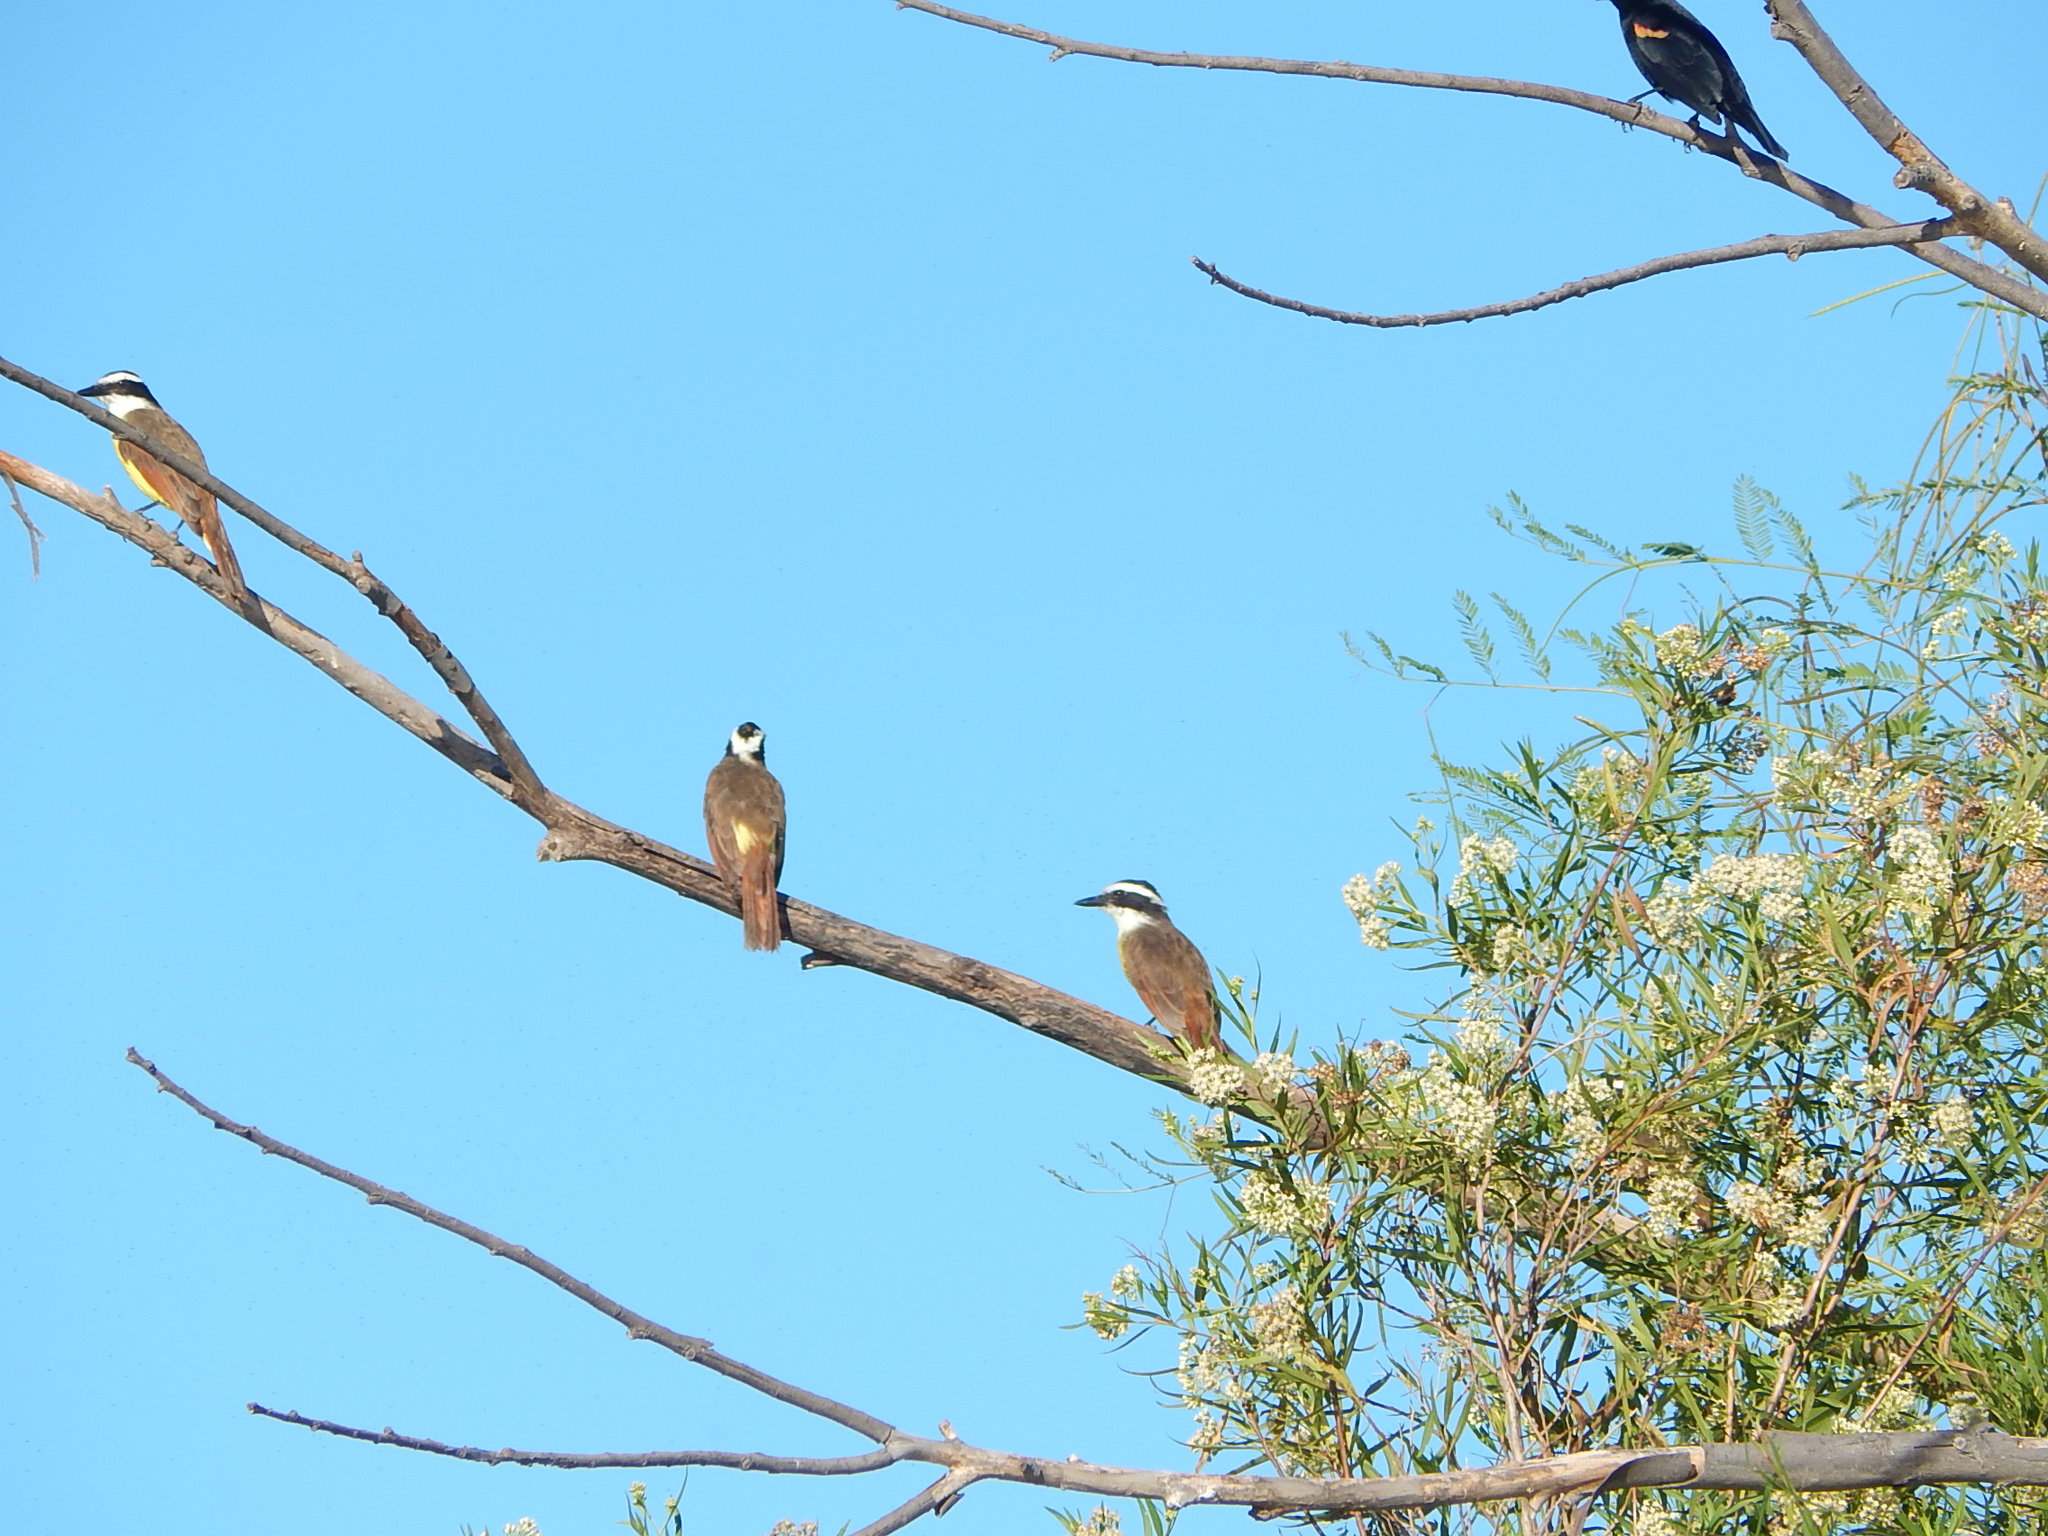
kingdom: Animalia
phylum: Chordata
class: Aves
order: Passeriformes
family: Tyrannidae
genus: Pitangus
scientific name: Pitangus sulphuratus
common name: Great kiskadee
